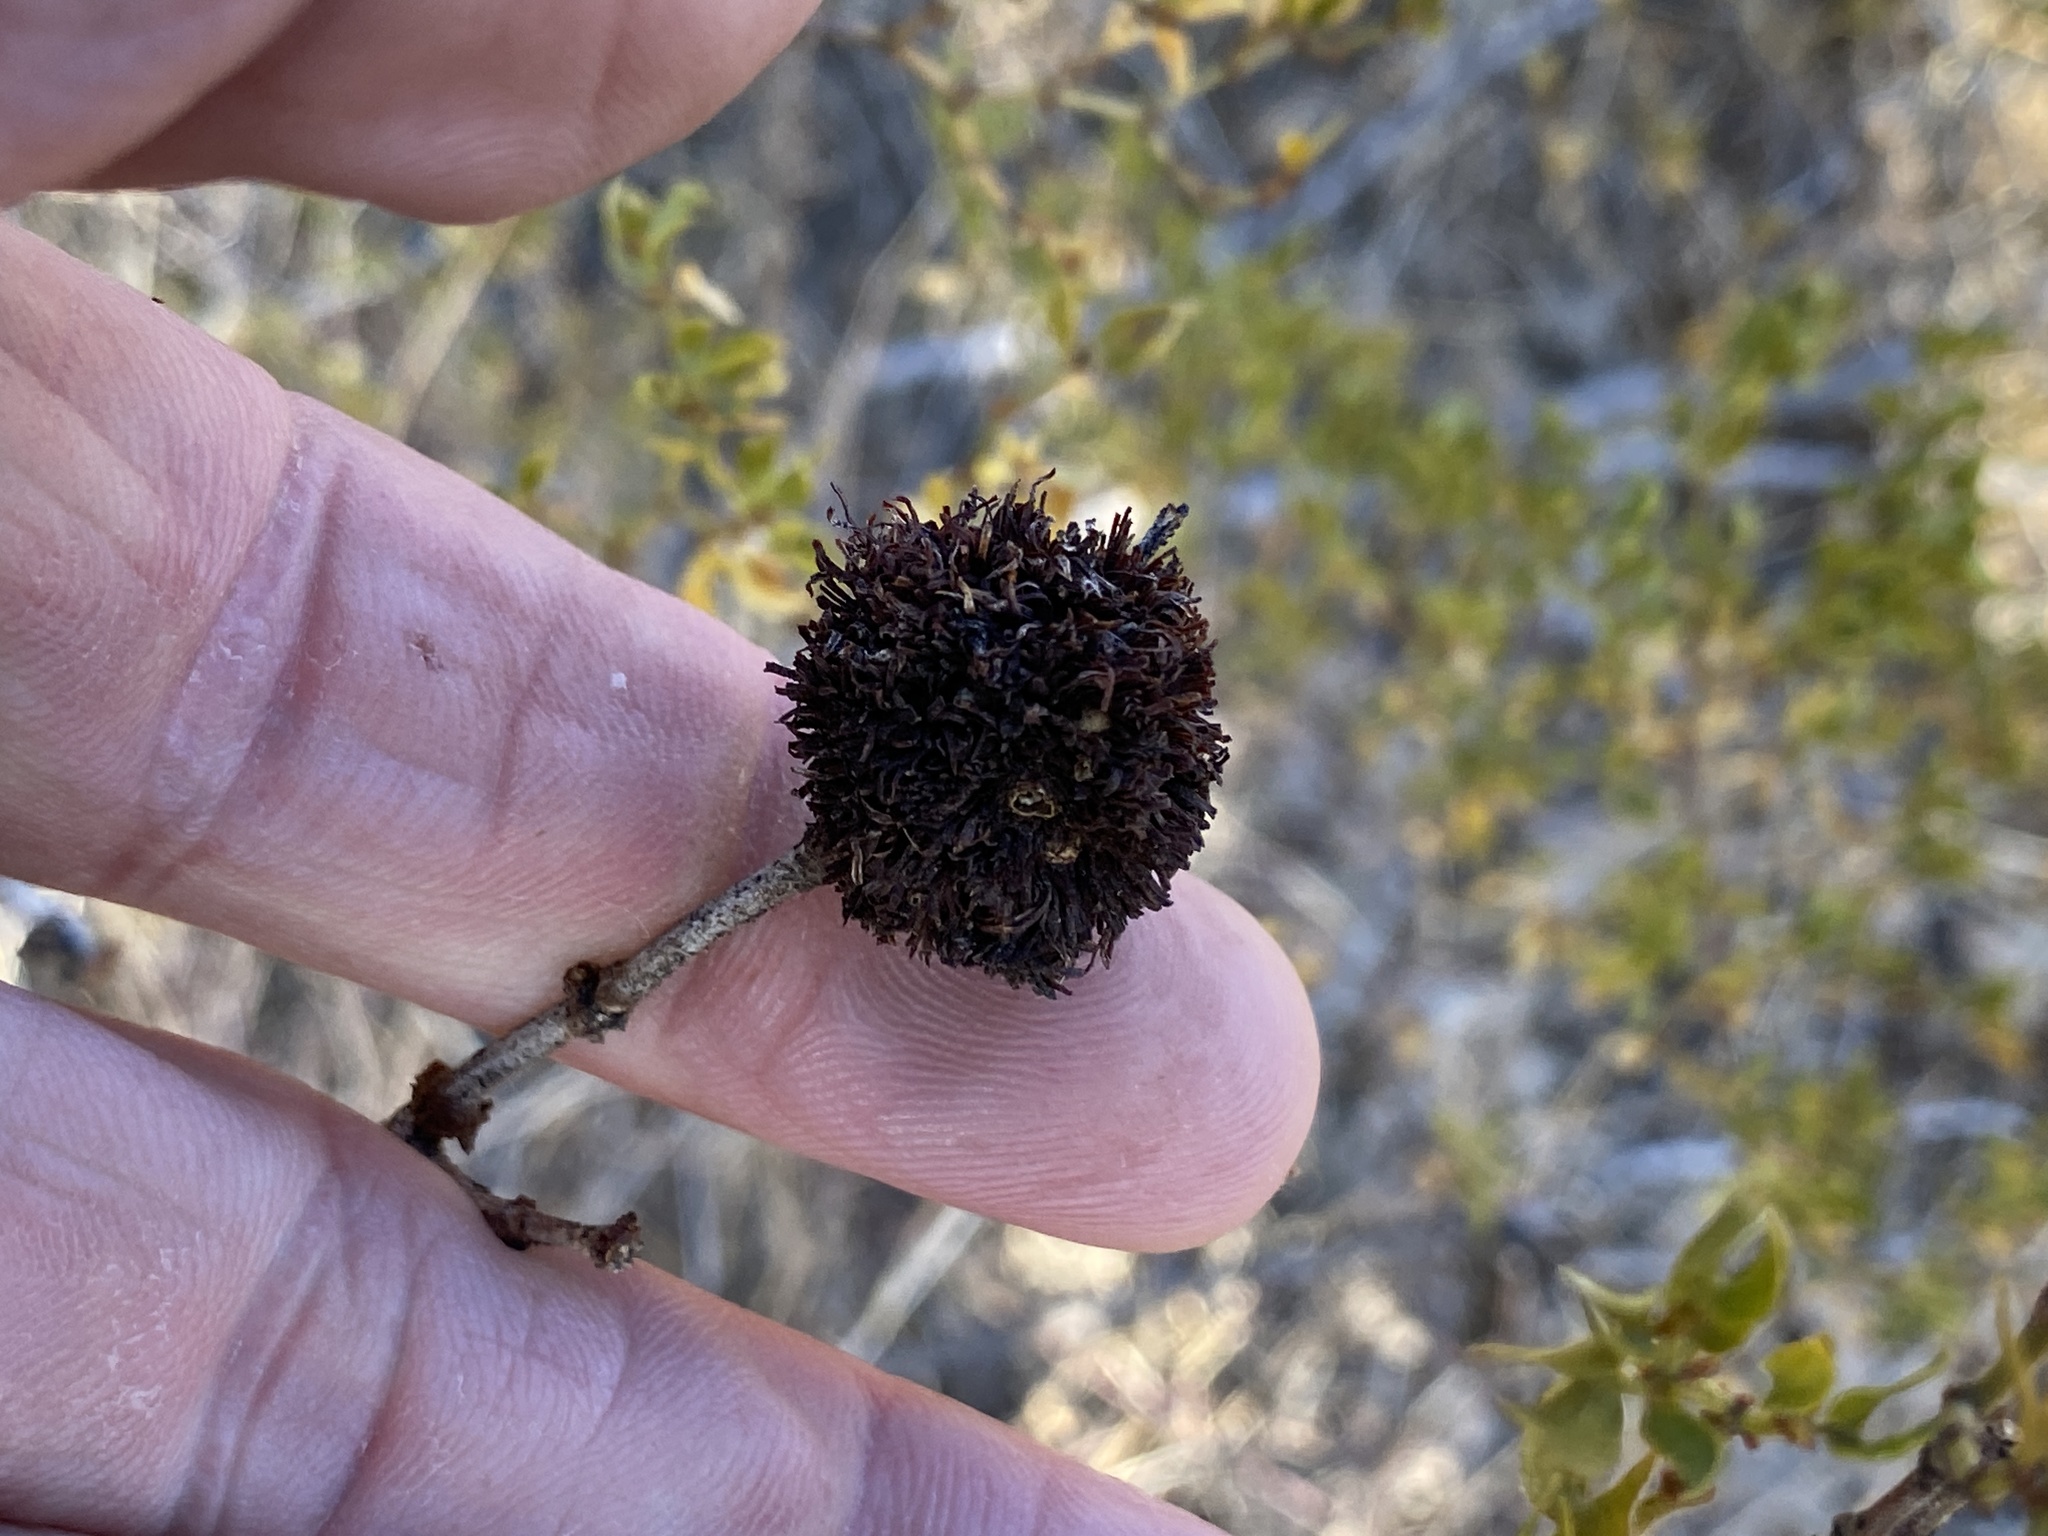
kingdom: Animalia
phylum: Arthropoda
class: Insecta
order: Diptera
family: Cecidomyiidae
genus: Asphondylia
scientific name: Asphondylia auripila
